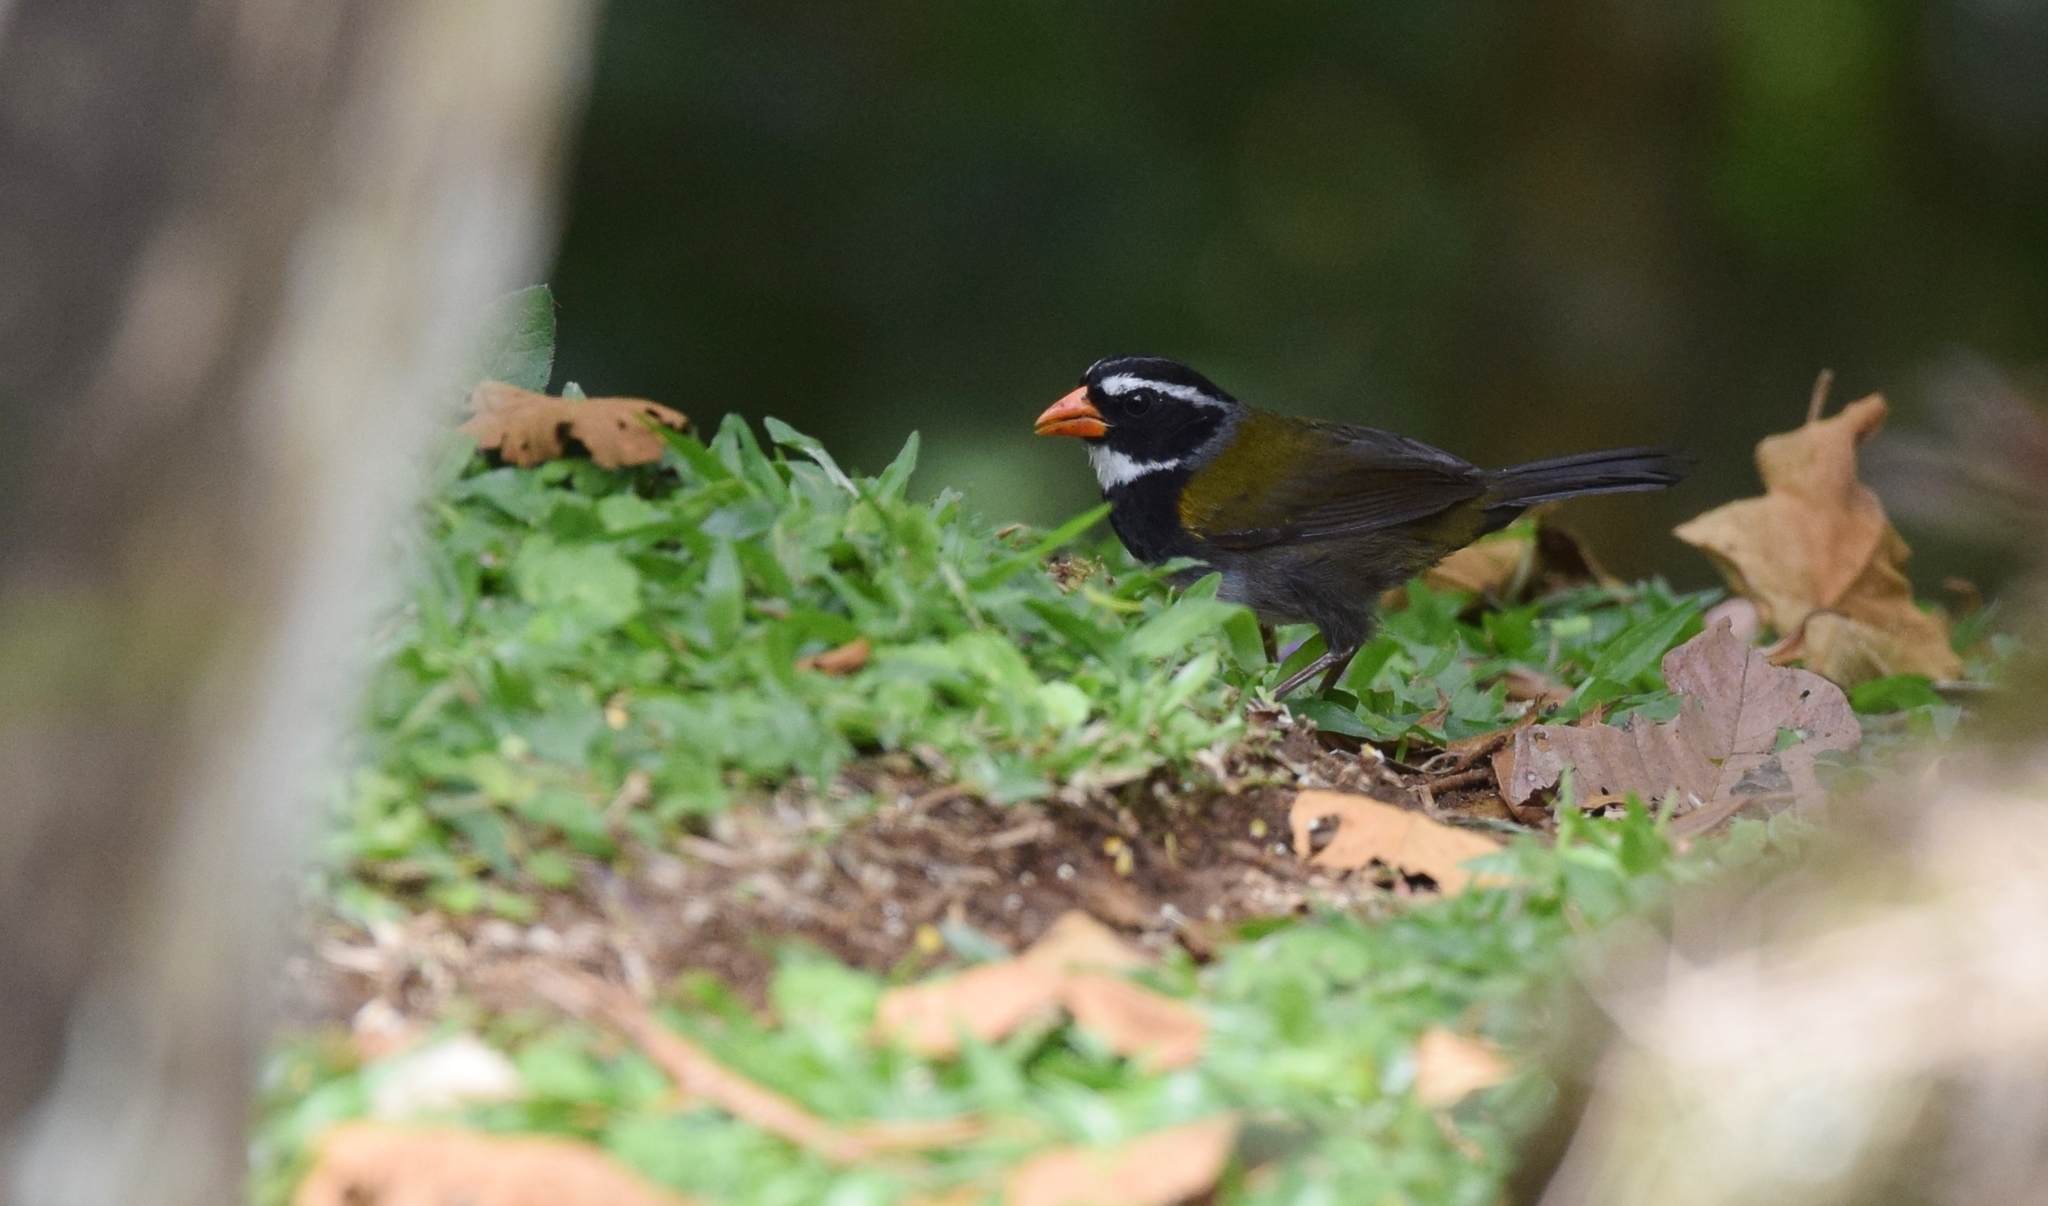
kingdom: Animalia
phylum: Chordata
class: Aves
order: Passeriformes
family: Passerellidae
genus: Arremon
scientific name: Arremon aurantiirostris
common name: Orange-billed sparrow
